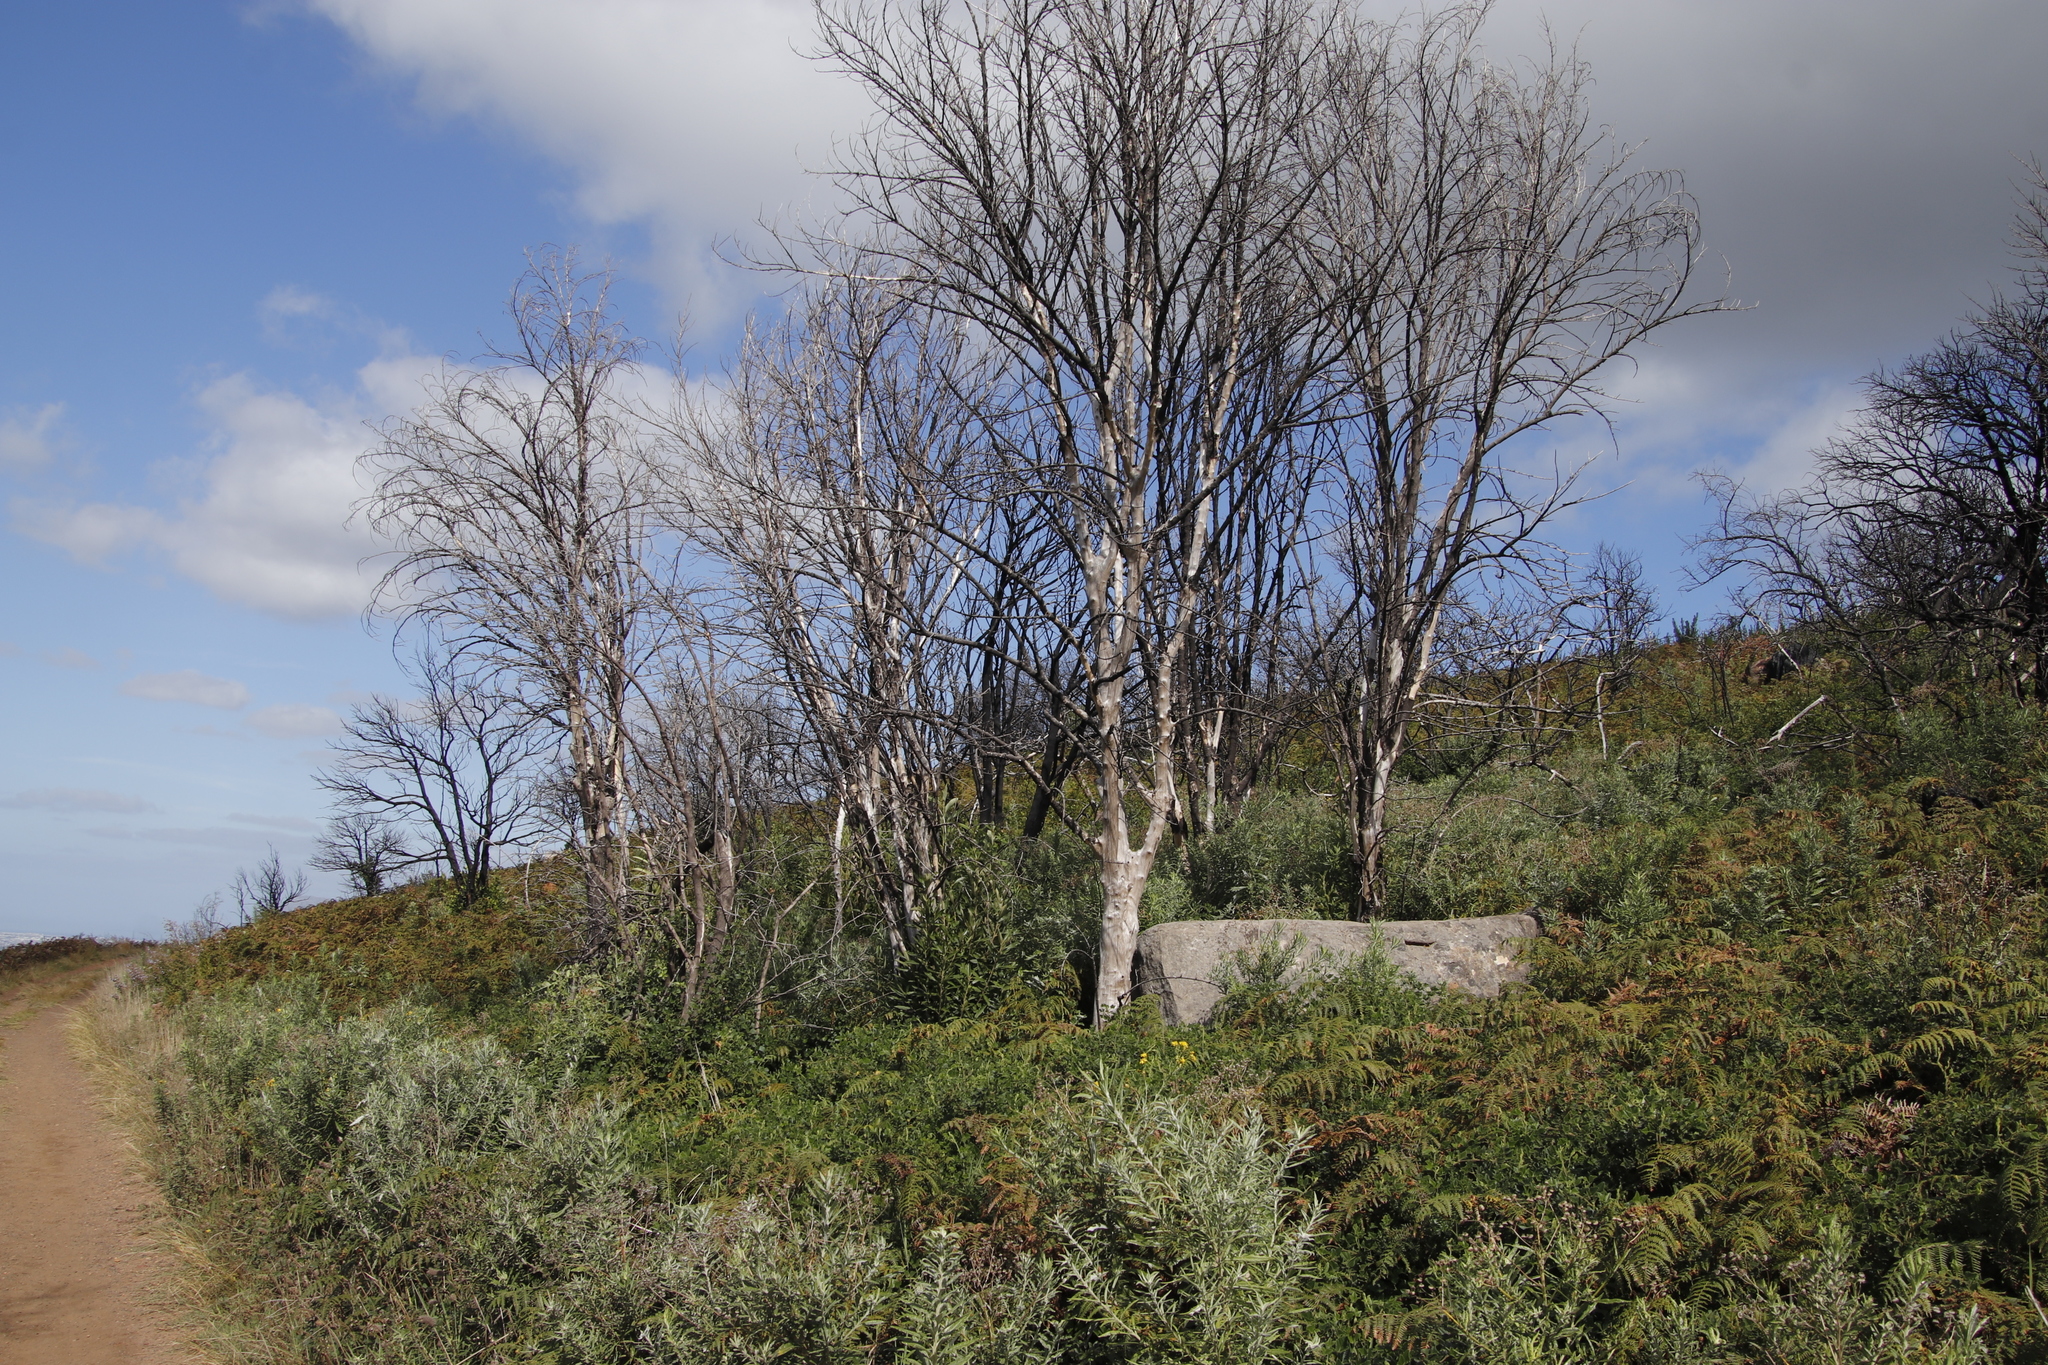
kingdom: Plantae
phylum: Tracheophyta
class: Magnoliopsida
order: Malpighiales
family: Achariaceae
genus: Kiggelaria
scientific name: Kiggelaria africana
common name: Wild peach
